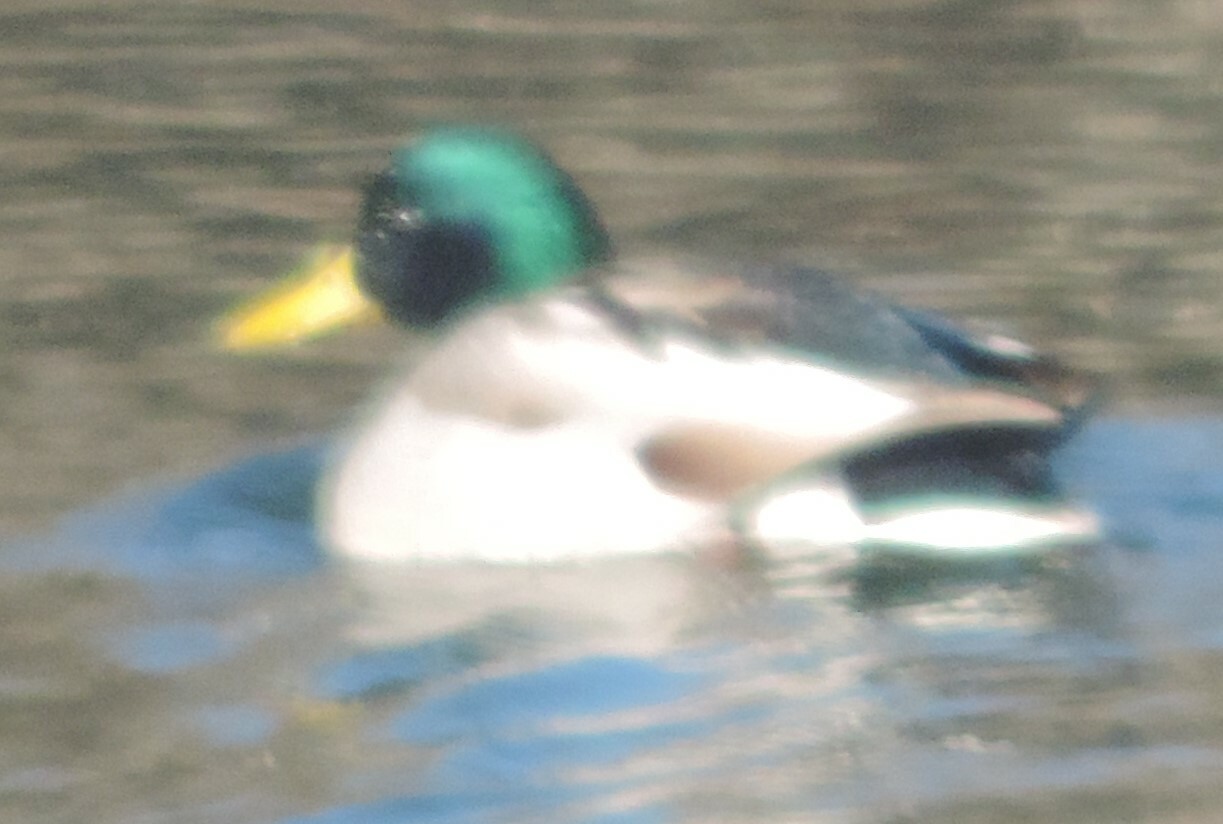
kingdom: Animalia
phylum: Chordata
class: Aves
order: Anseriformes
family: Anatidae
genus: Anas
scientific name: Anas platyrhynchos
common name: Mallard
